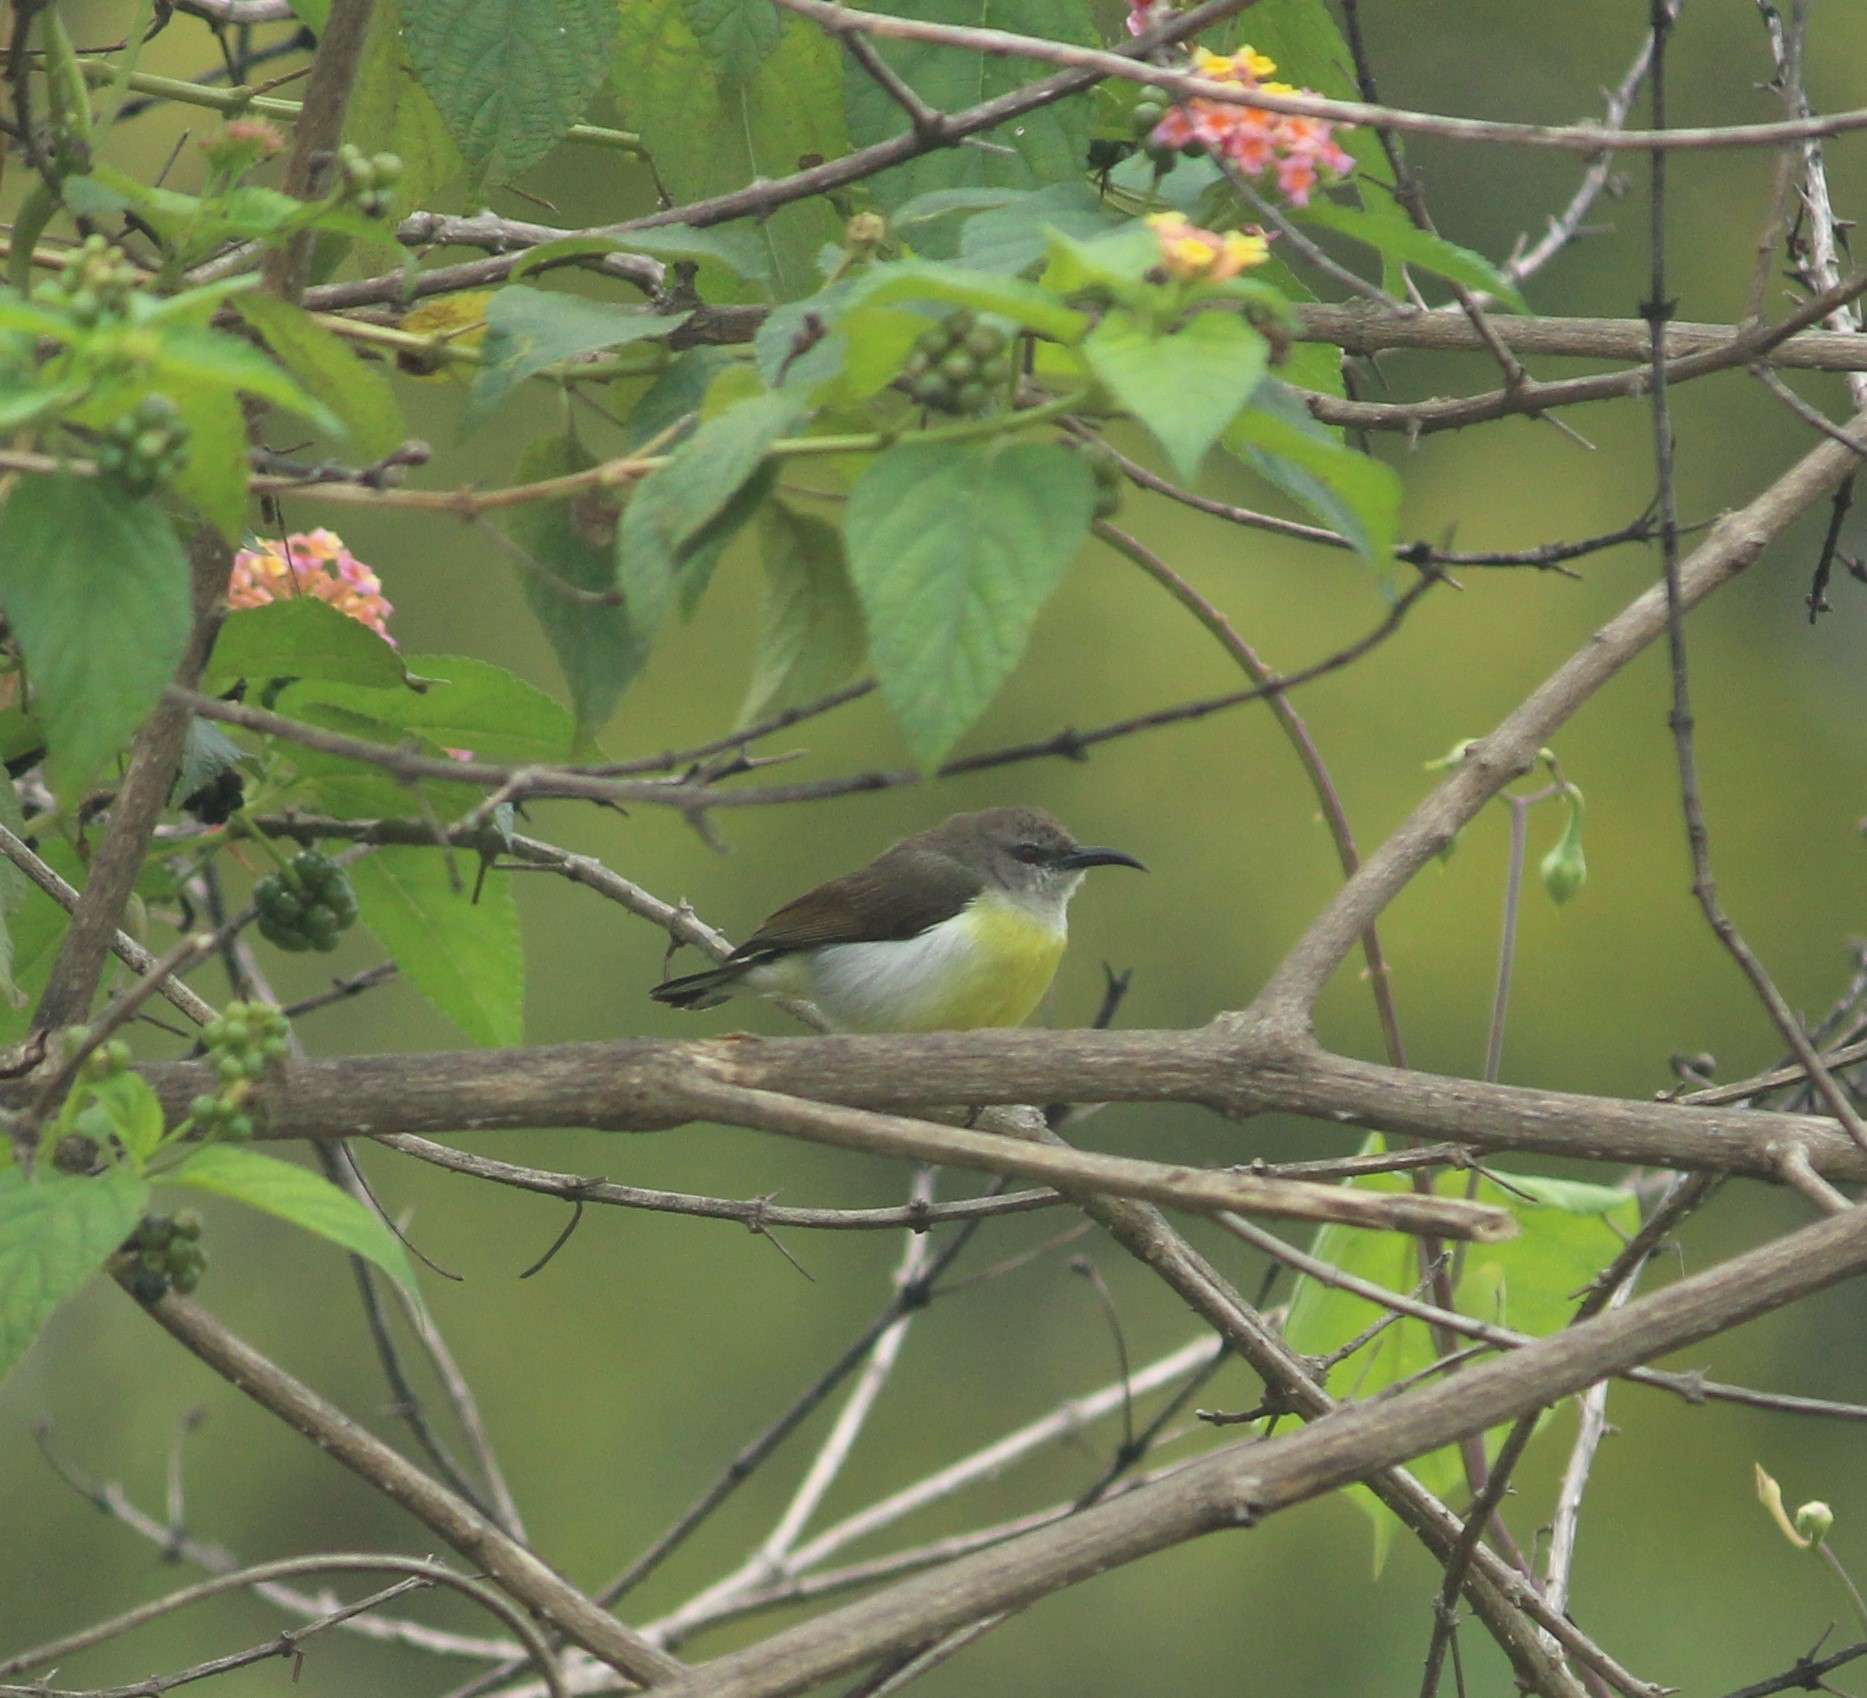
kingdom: Animalia
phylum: Chordata
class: Aves
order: Passeriformes
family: Nectariniidae
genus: Leptocoma
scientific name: Leptocoma zeylonica
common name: Purple-rumped sunbird
